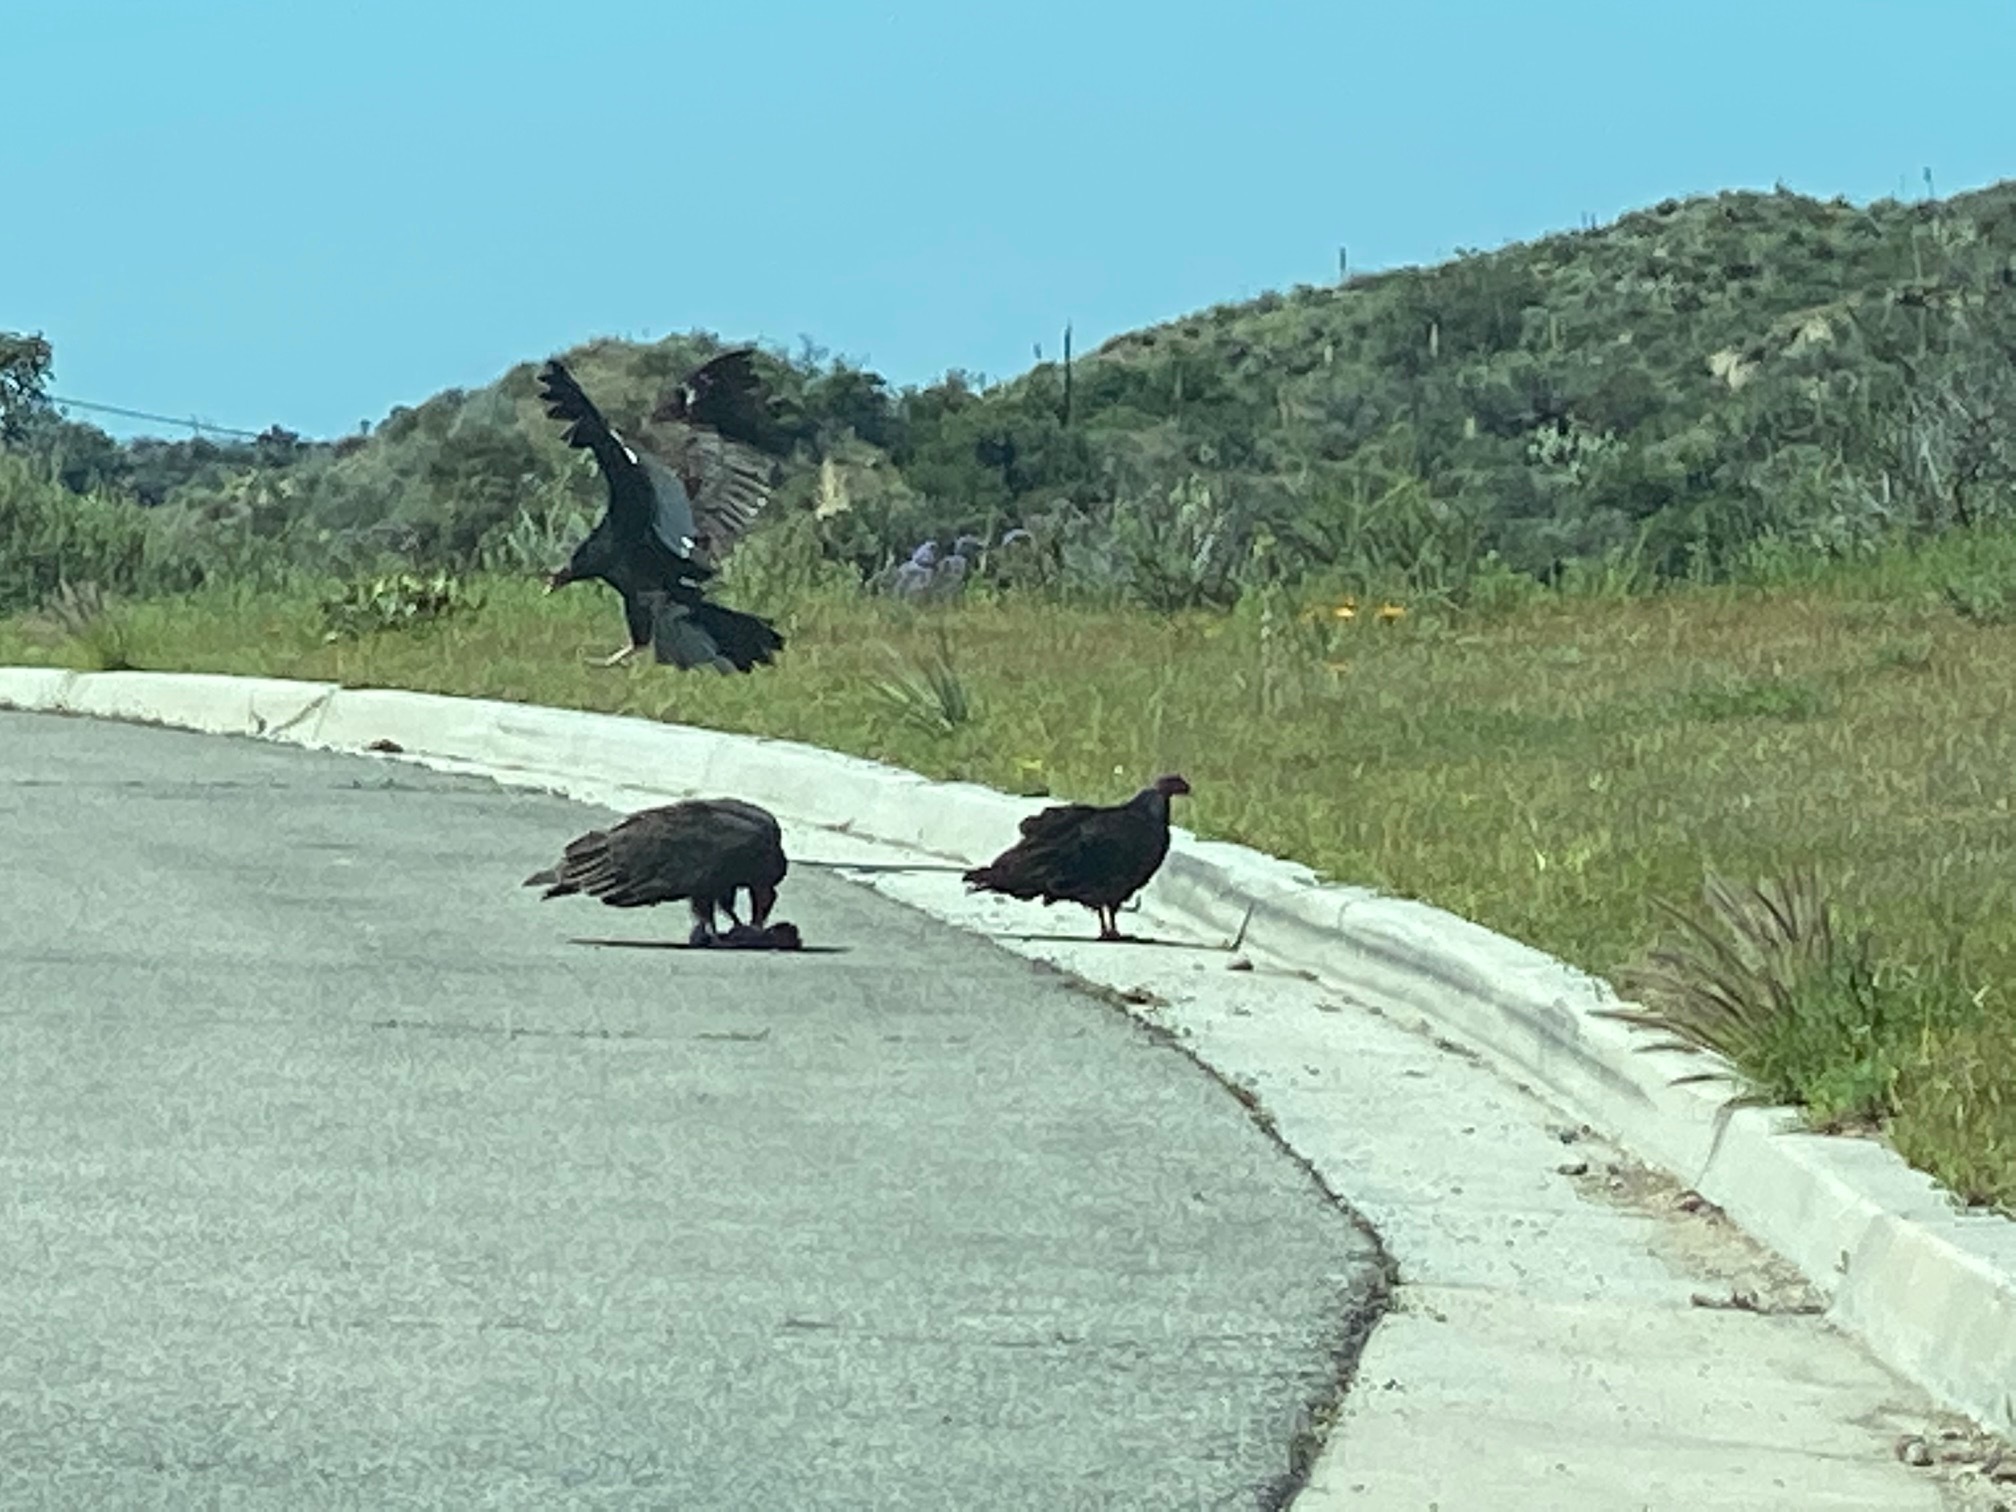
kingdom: Animalia
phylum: Chordata
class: Aves
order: Accipitriformes
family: Cathartidae
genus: Cathartes
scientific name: Cathartes aura
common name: Turkey vulture
